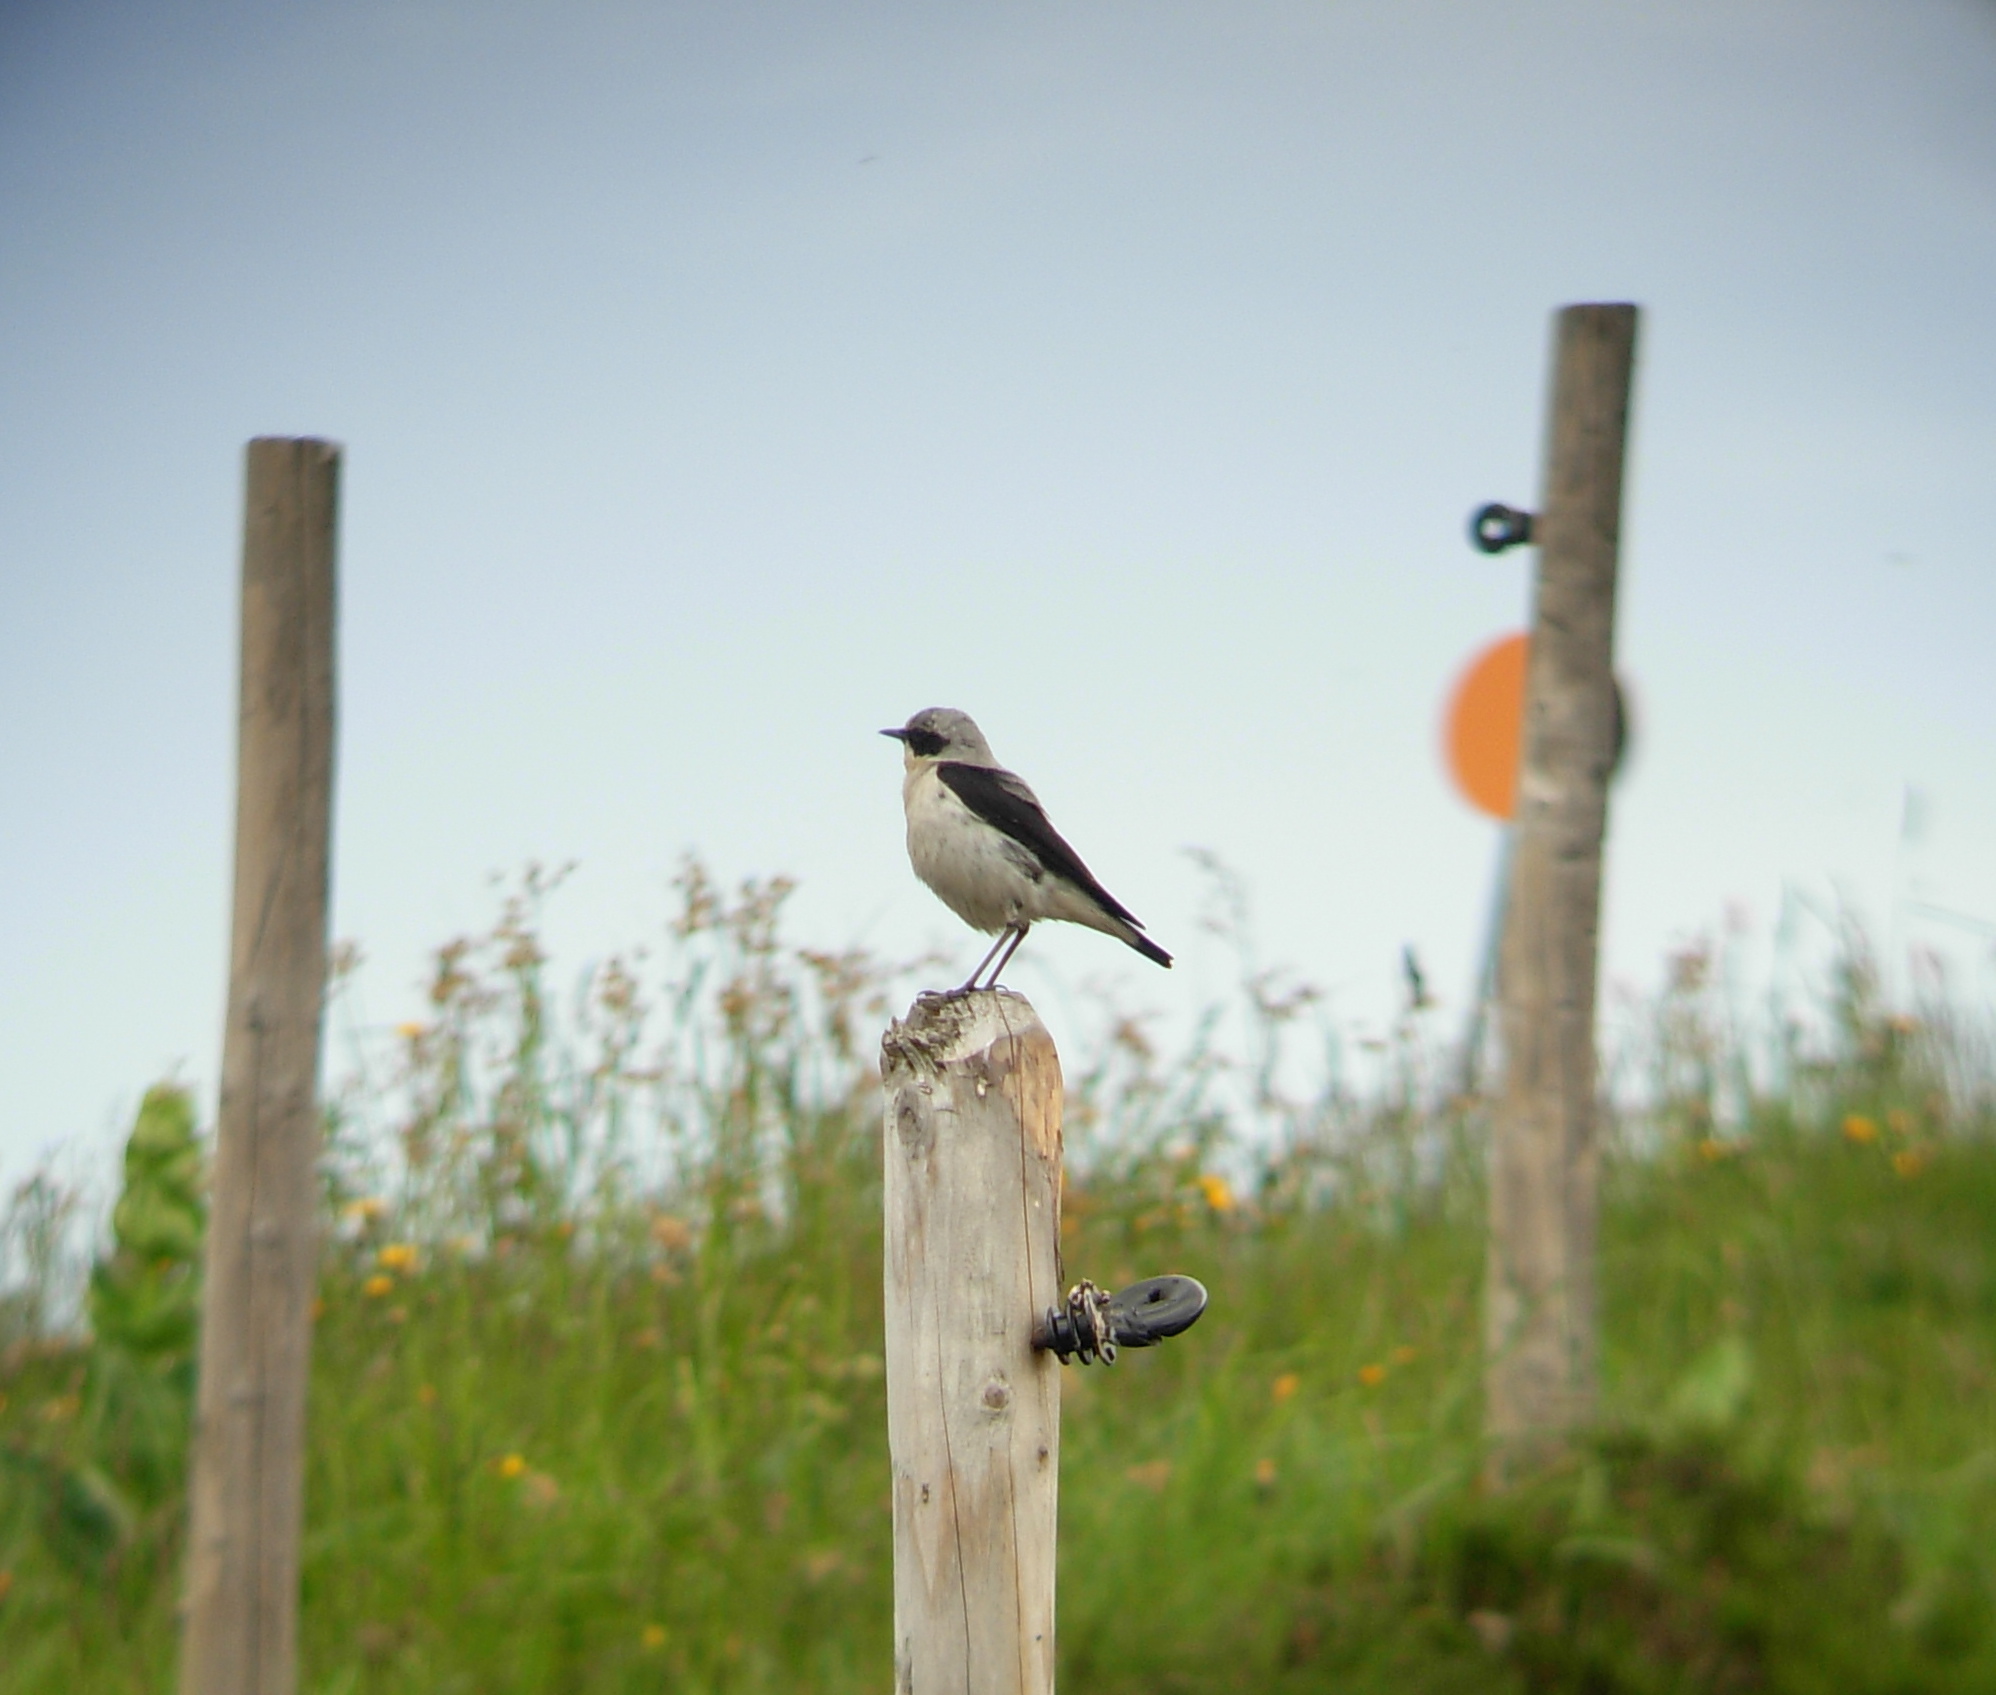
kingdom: Animalia
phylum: Chordata
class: Aves
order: Passeriformes
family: Muscicapidae
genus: Oenanthe
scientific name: Oenanthe oenanthe
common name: Northern wheatear
